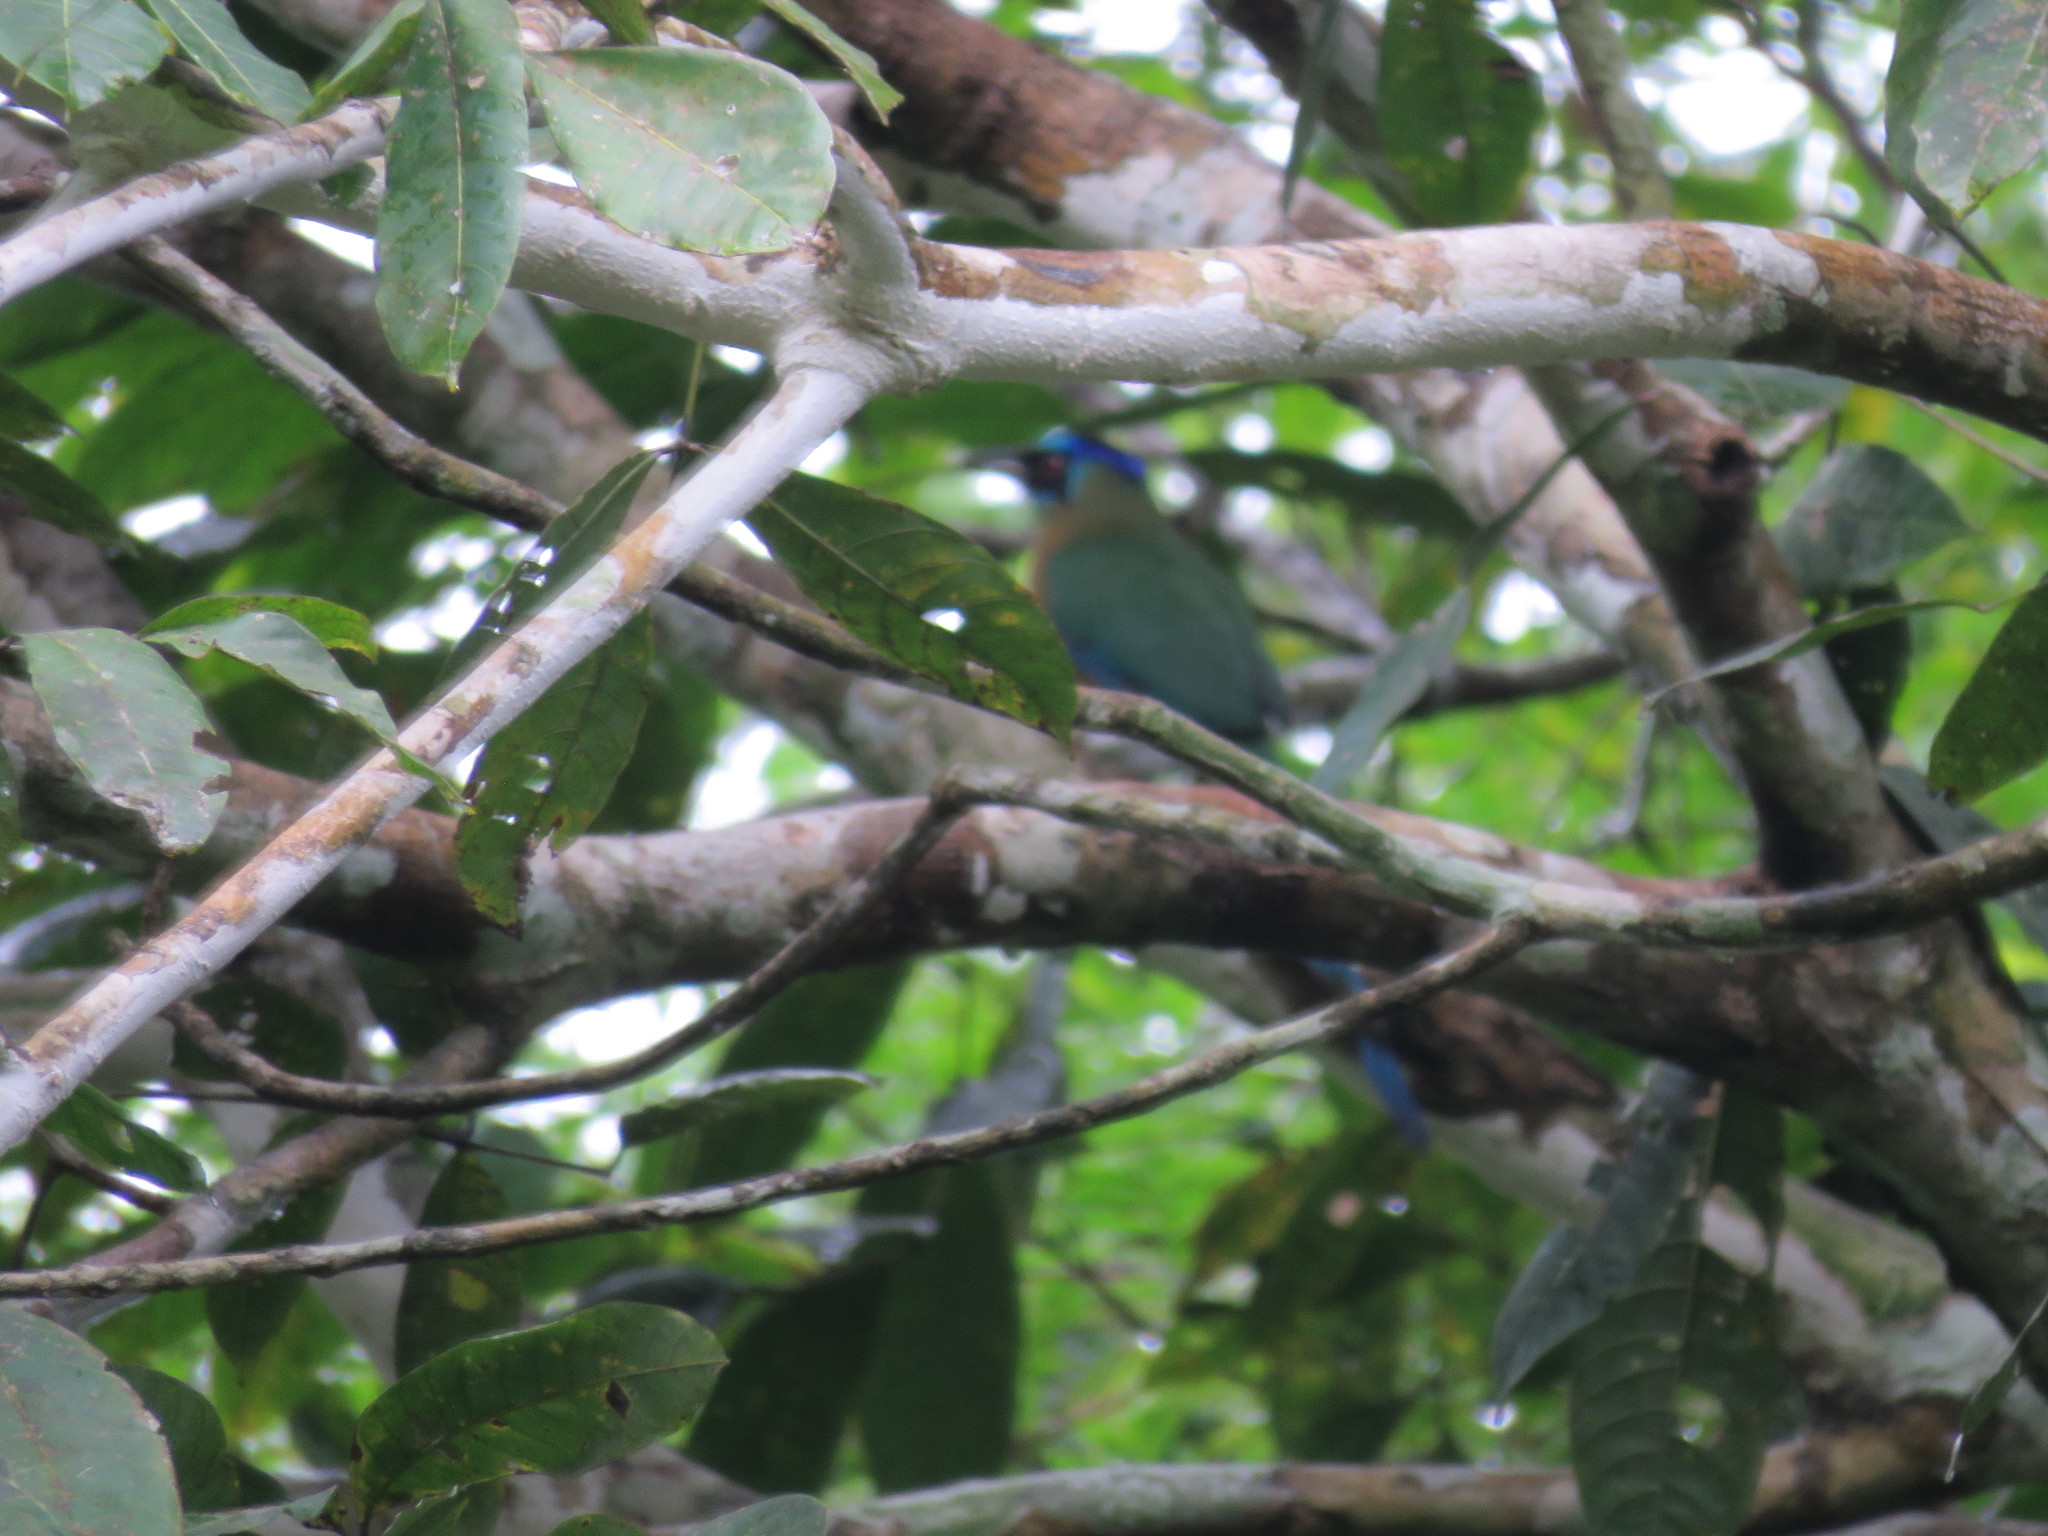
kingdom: Animalia
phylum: Chordata
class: Aves
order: Coraciiformes
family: Momotidae
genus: Momotus
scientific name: Momotus momota
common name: Amazonian motmot
